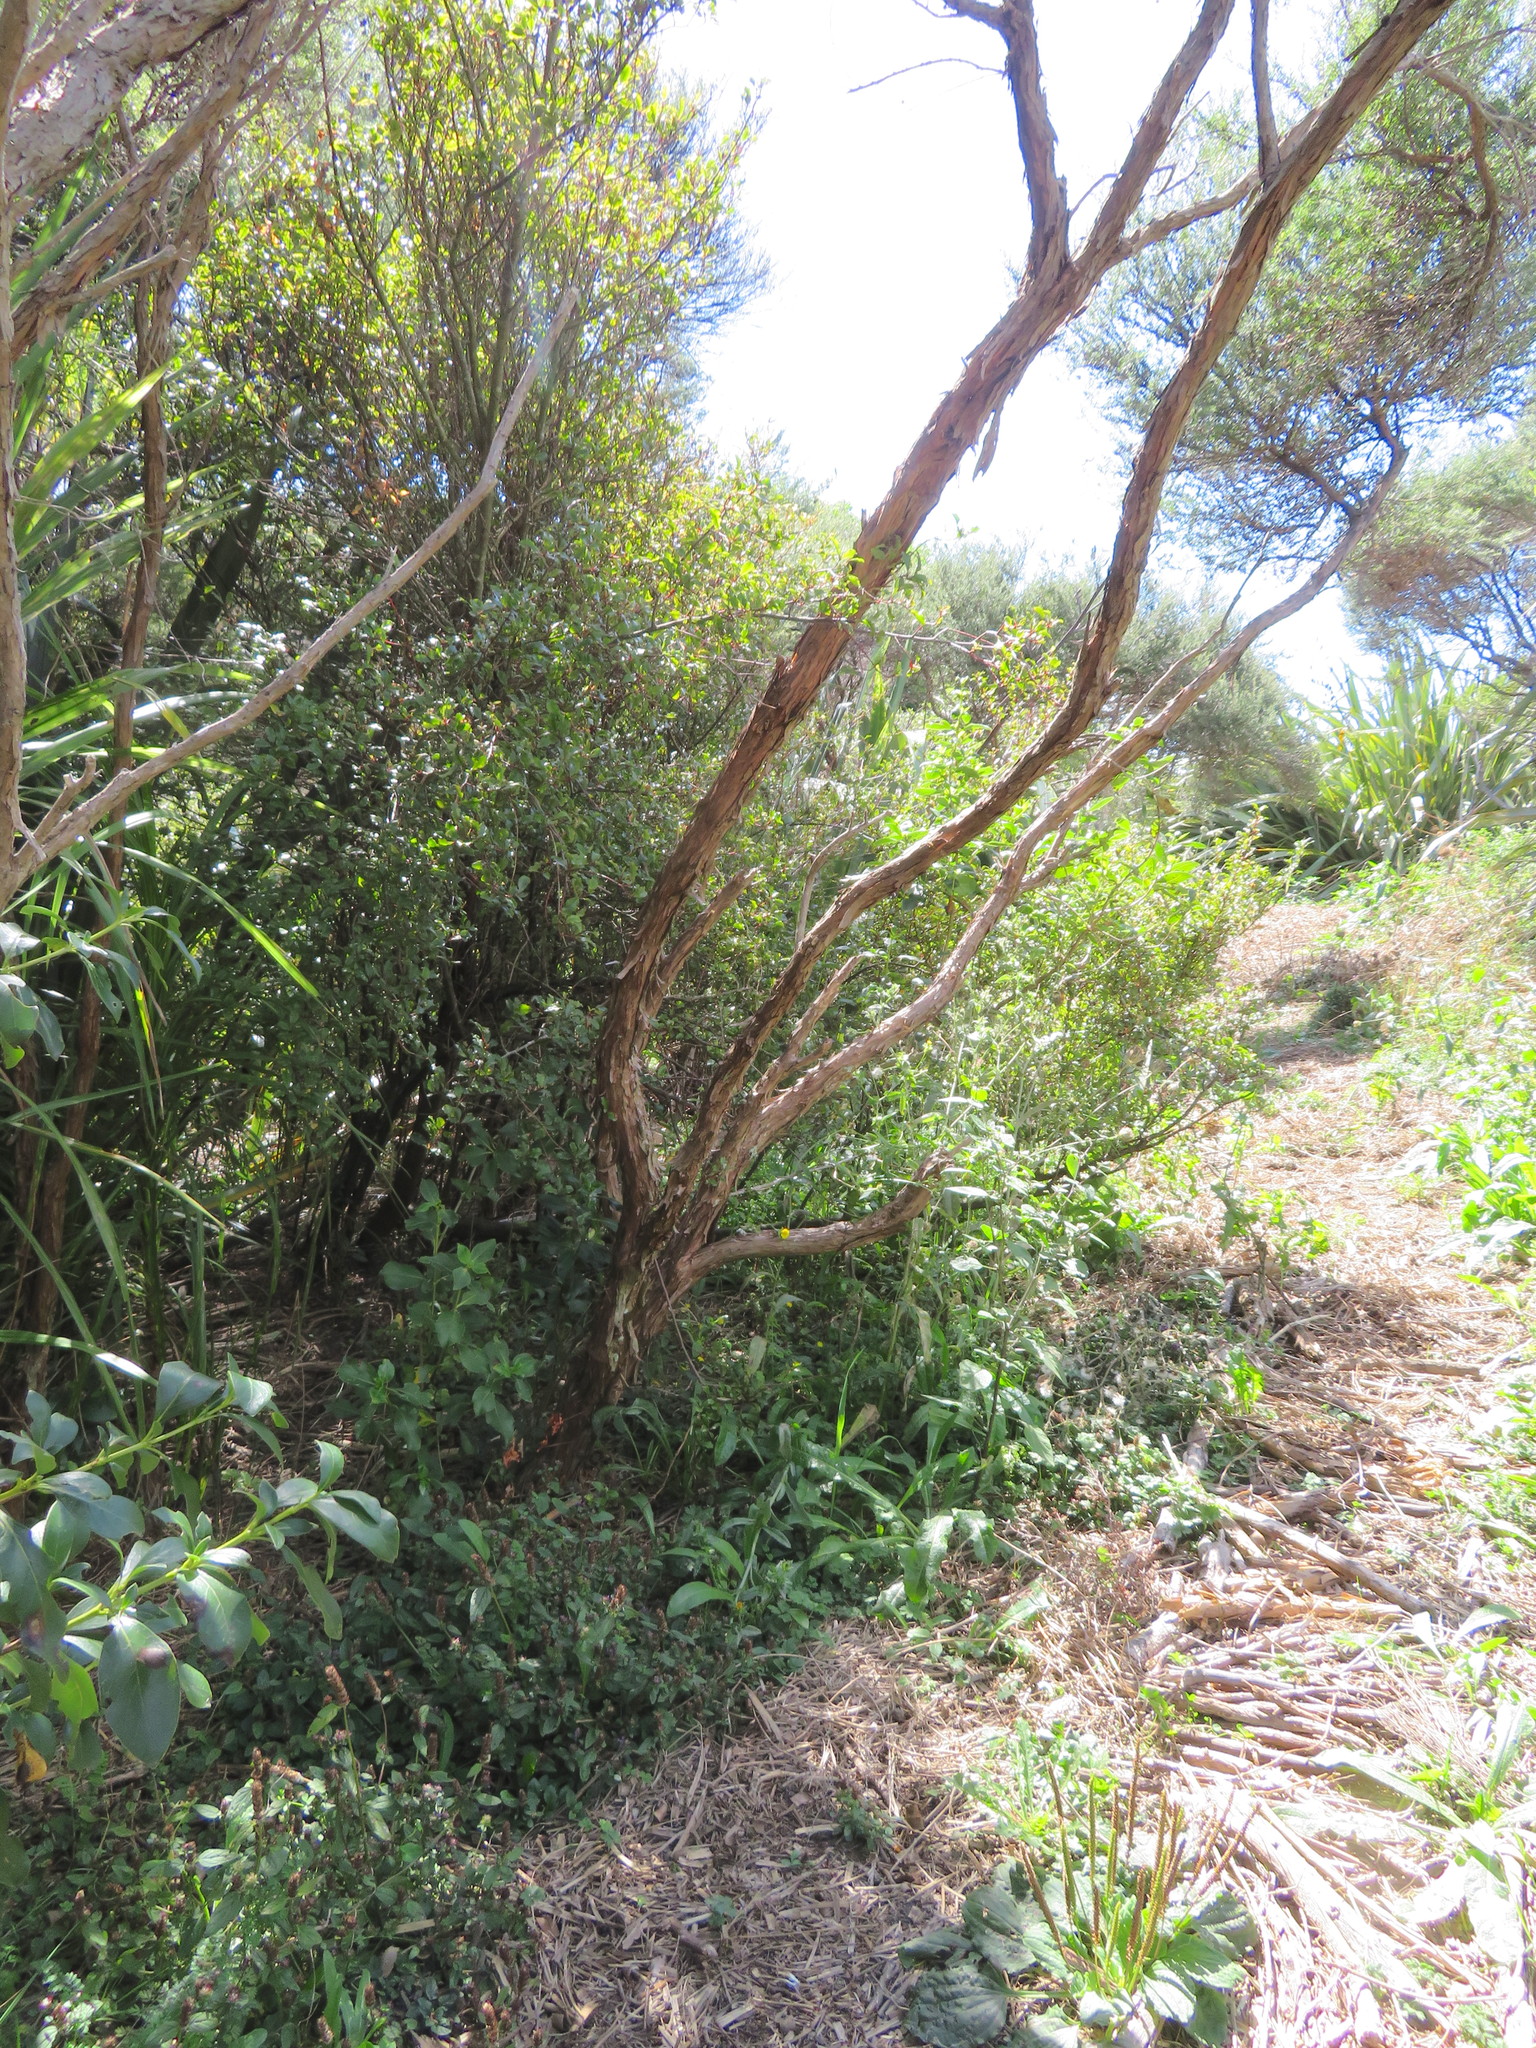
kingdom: Plantae
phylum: Tracheophyta
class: Magnoliopsida
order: Ericales
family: Primulaceae
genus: Myrsine
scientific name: Myrsine australis
